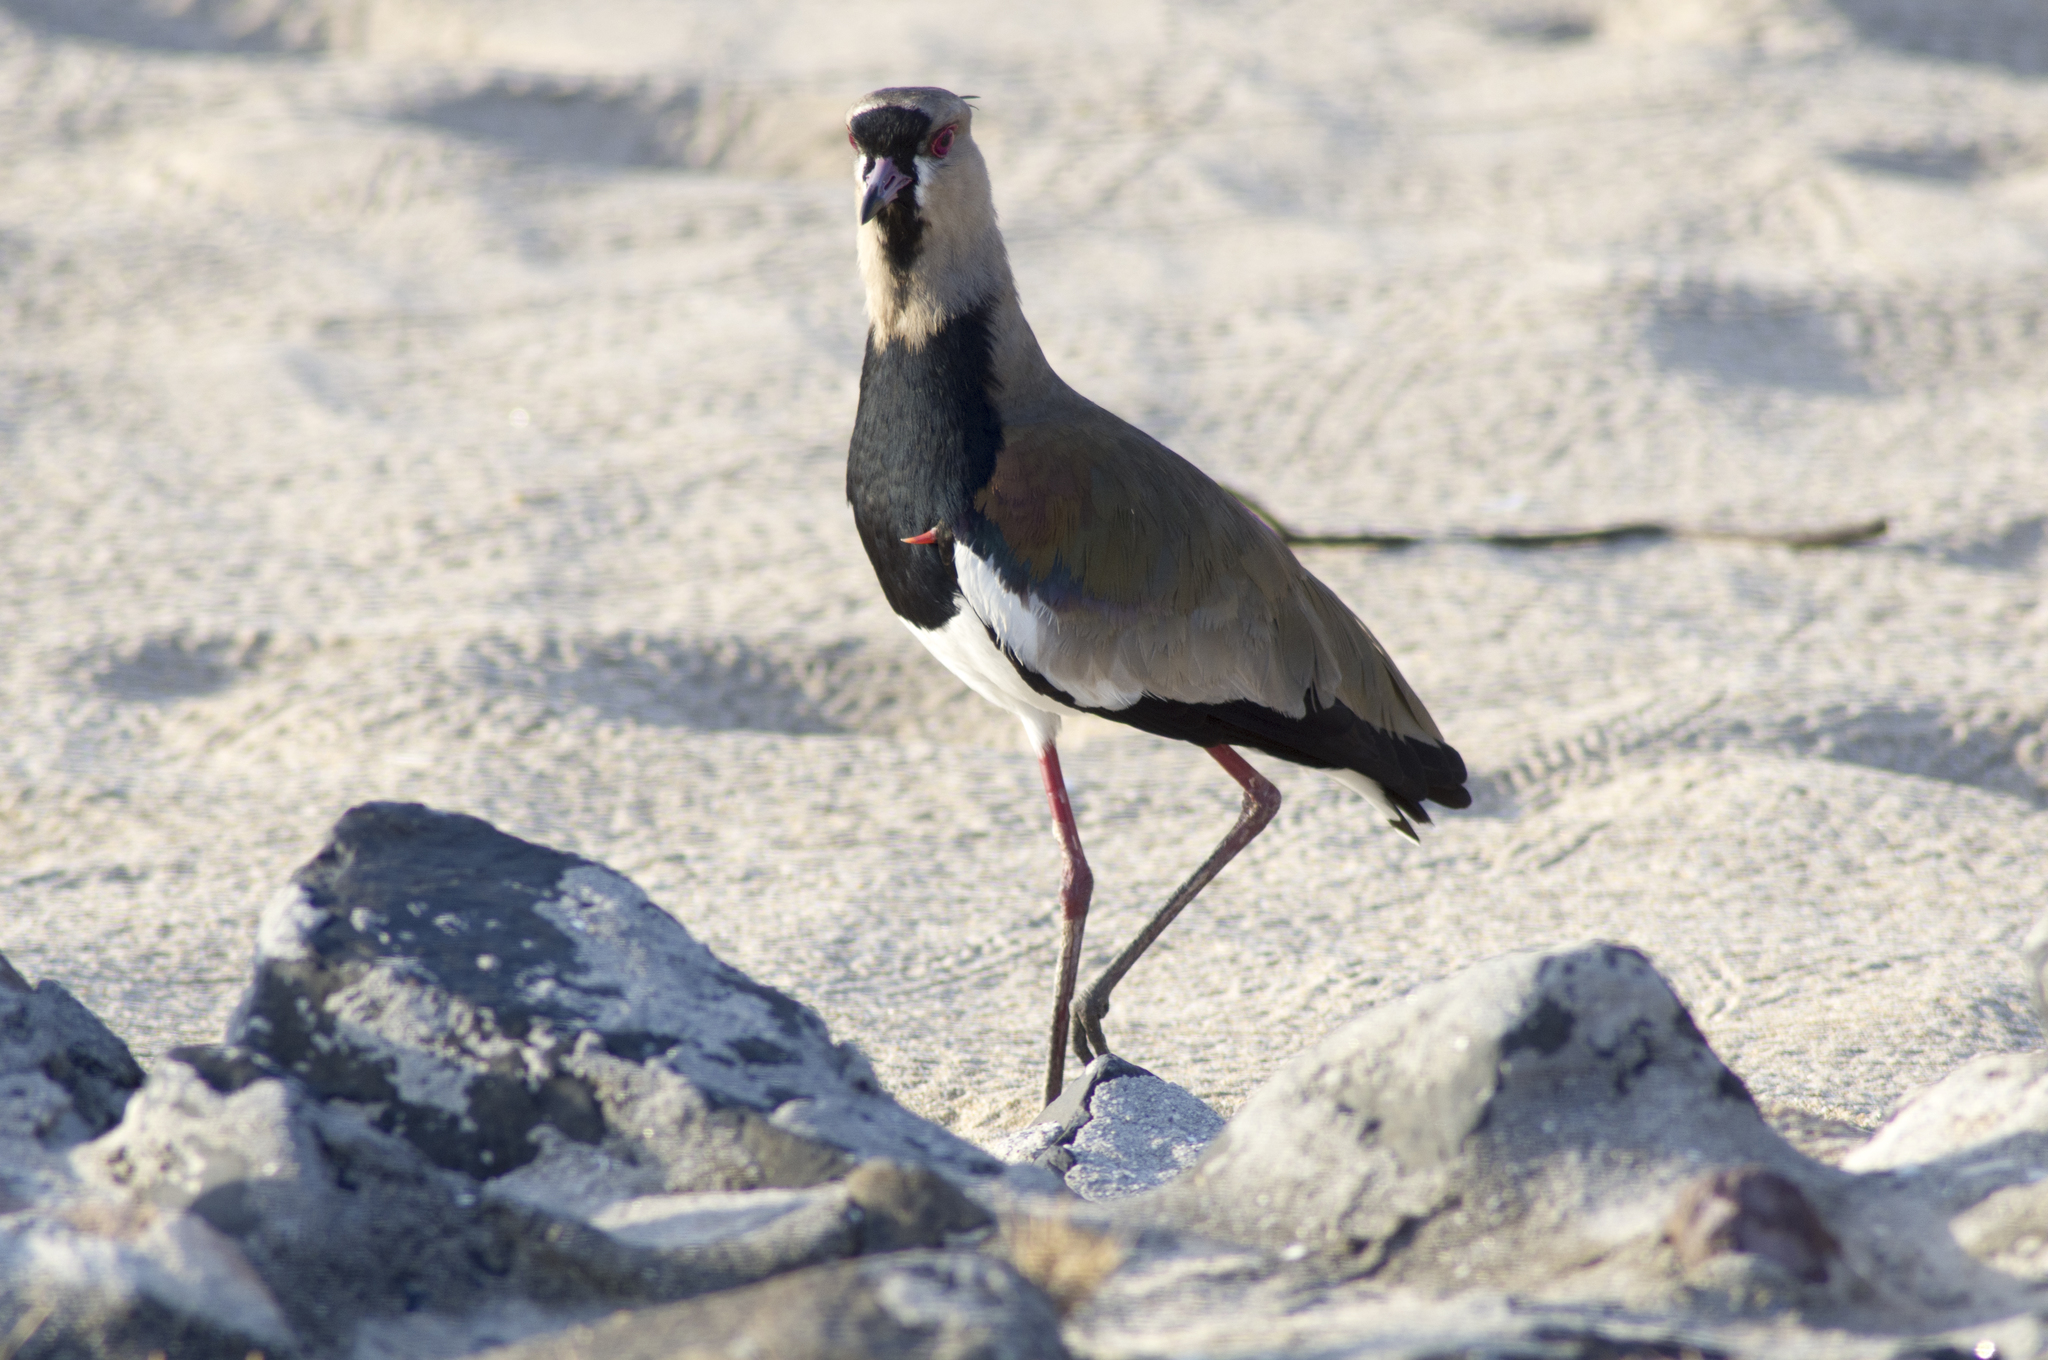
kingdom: Animalia
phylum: Chordata
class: Aves
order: Charadriiformes
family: Charadriidae
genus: Vanellus
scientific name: Vanellus chilensis
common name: Southern lapwing
